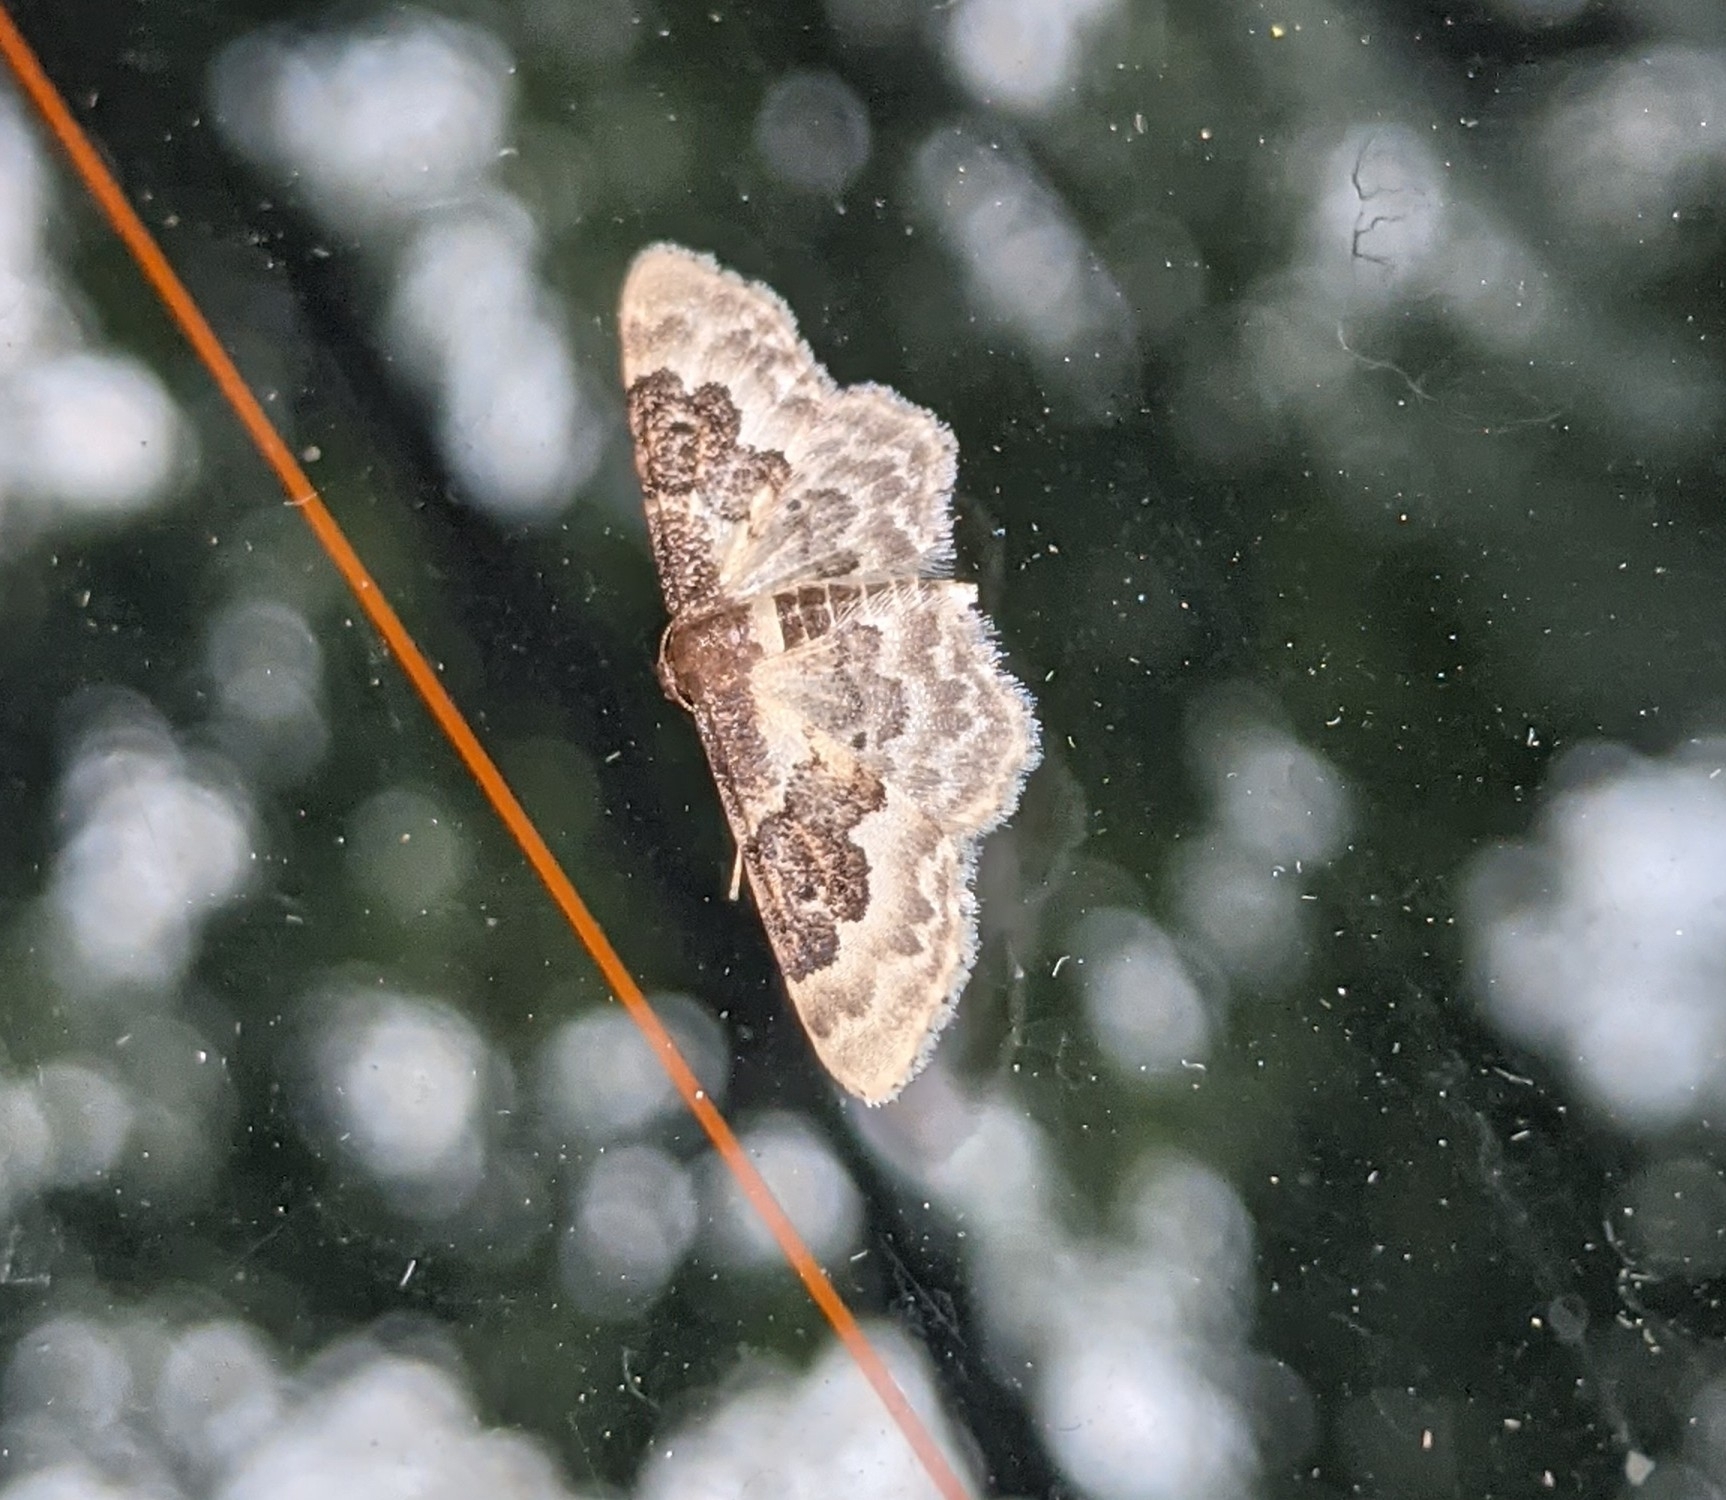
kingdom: Animalia
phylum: Arthropoda
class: Insecta
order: Lepidoptera
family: Geometridae
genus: Idaea
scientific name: Idaea rusticata
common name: Least carpet
